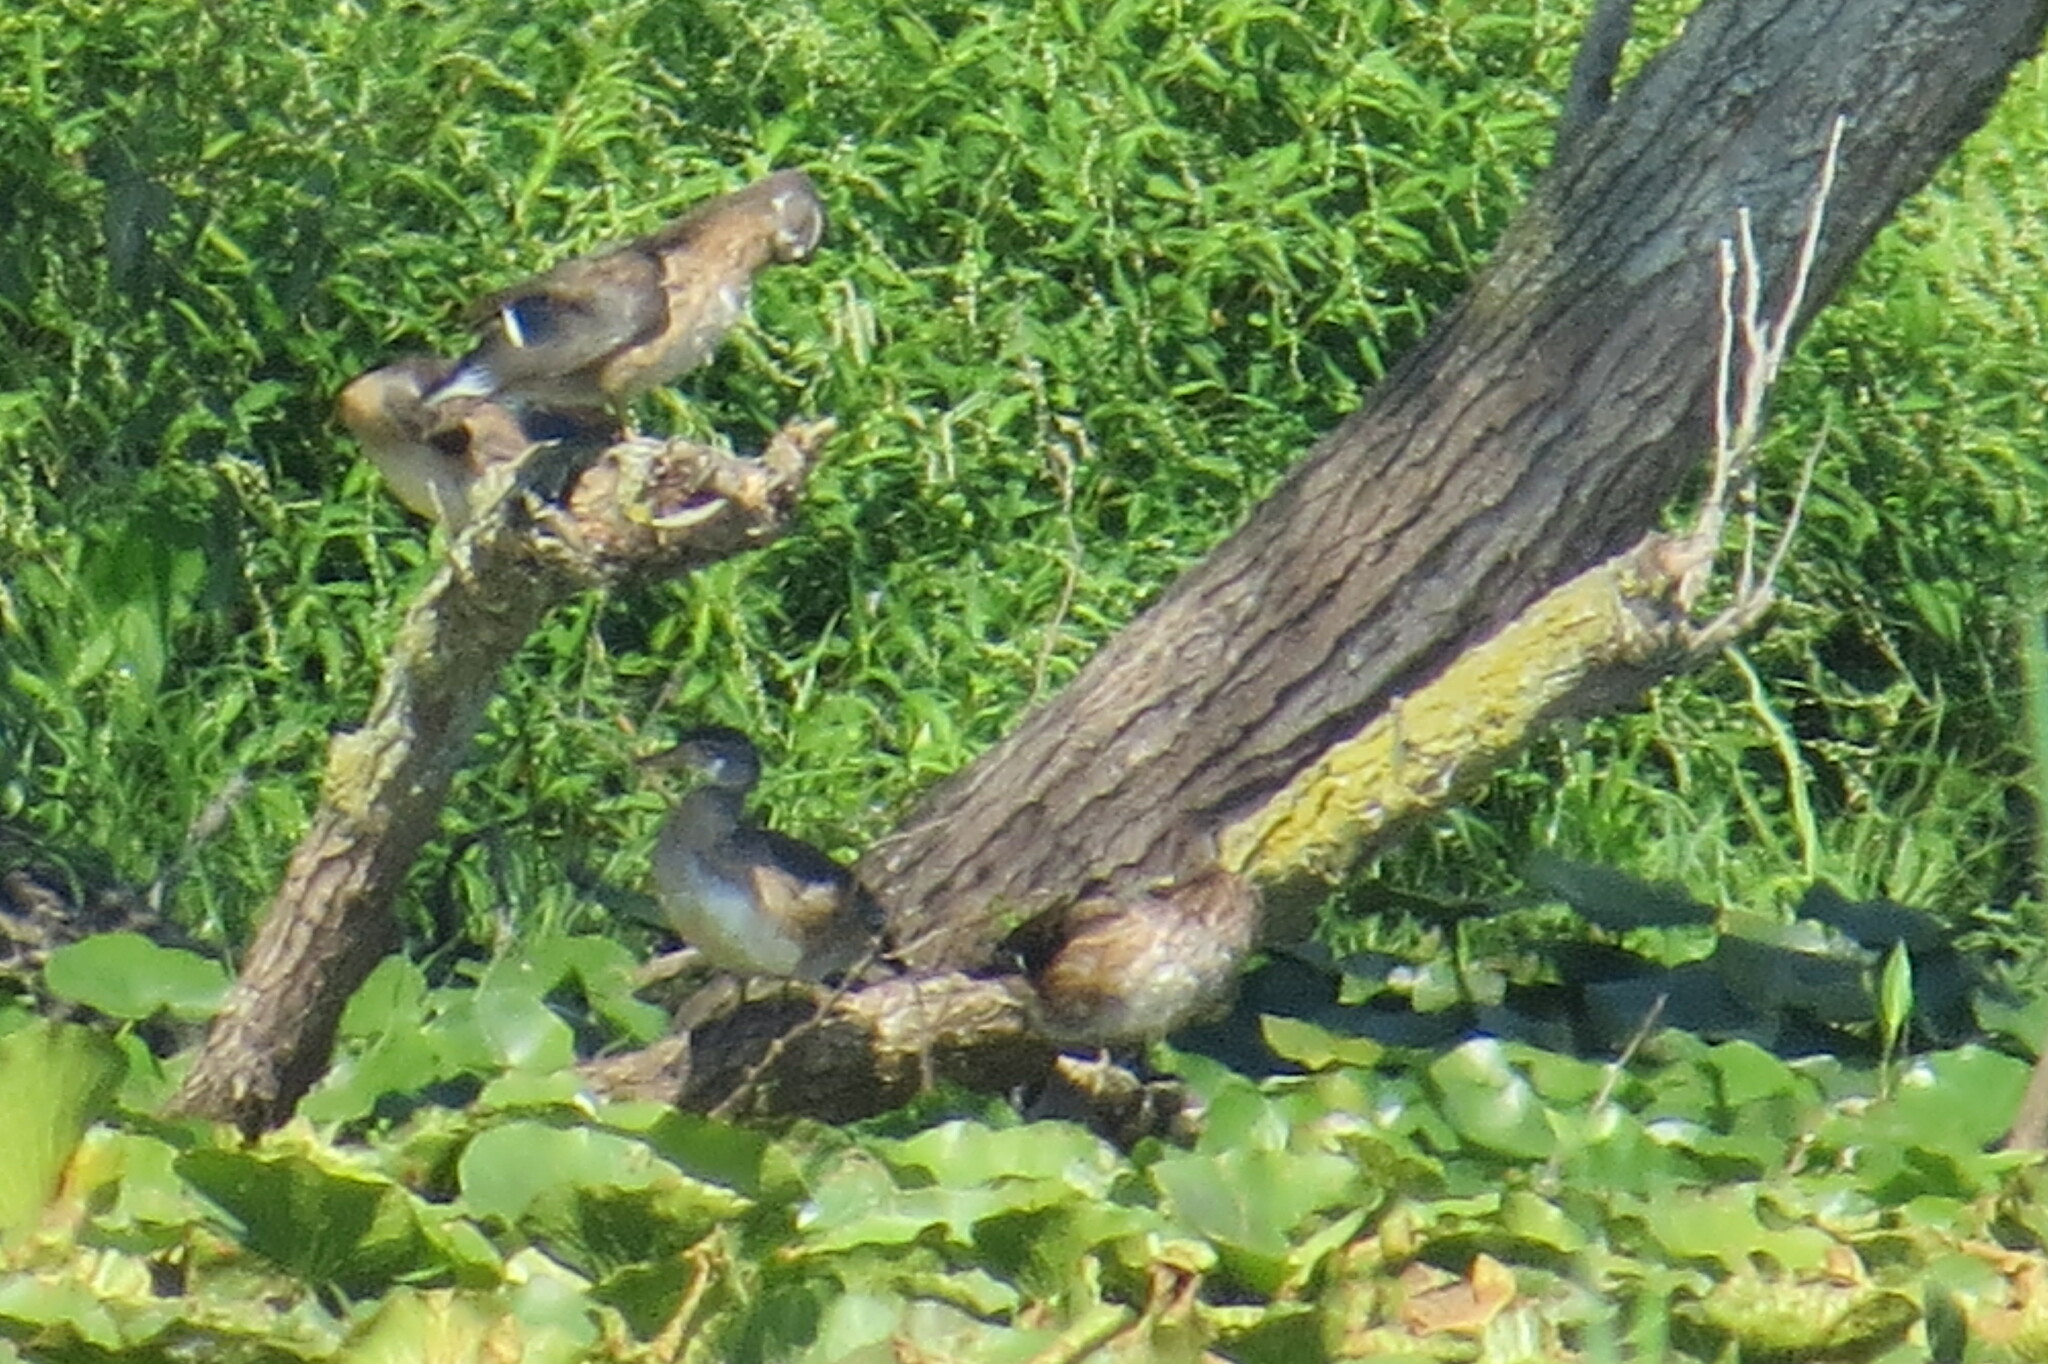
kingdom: Animalia
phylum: Chordata
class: Aves
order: Anseriformes
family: Anatidae
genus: Aix
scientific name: Aix sponsa
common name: Wood duck
